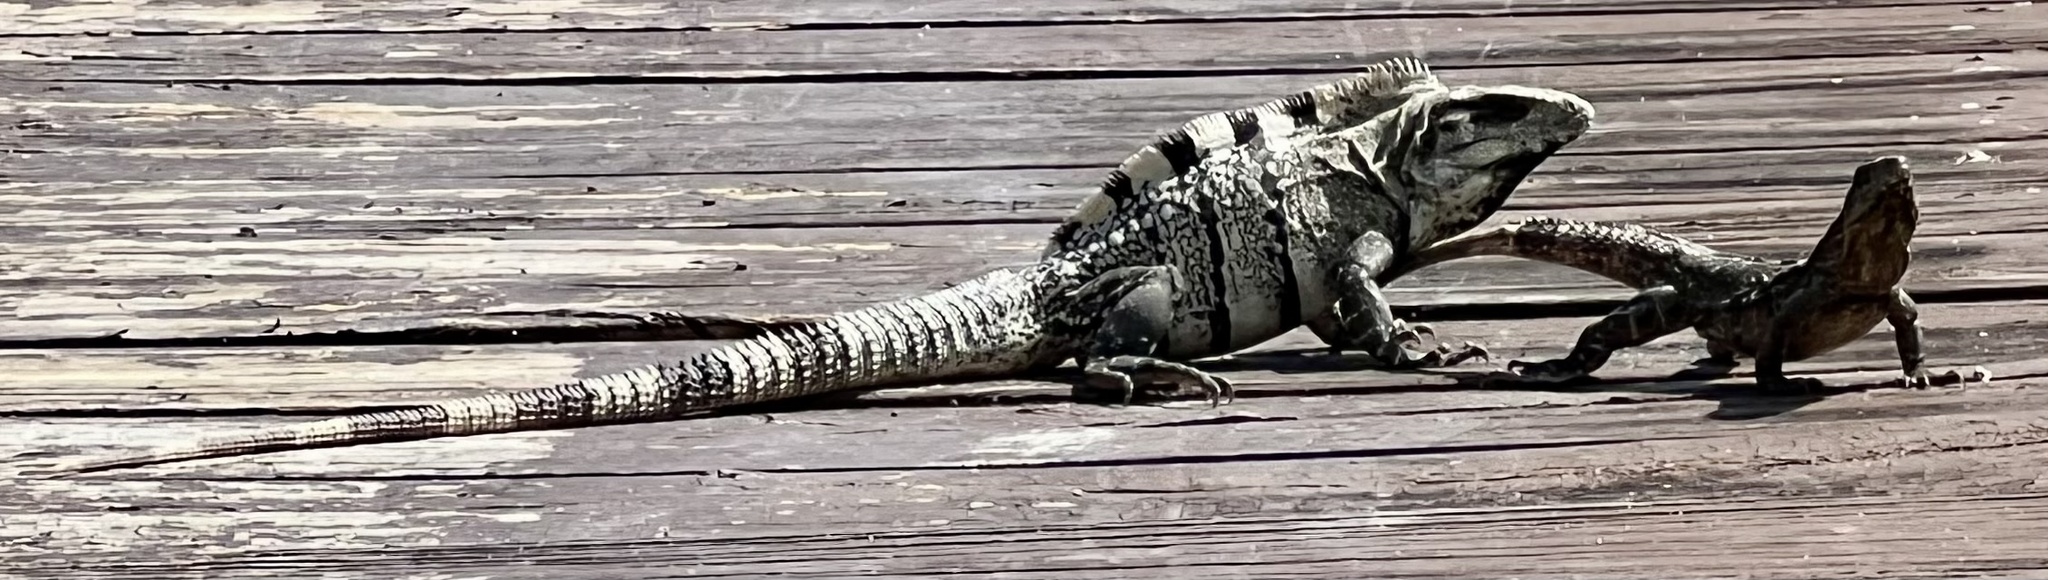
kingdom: Animalia
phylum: Chordata
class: Squamata
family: Iguanidae
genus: Ctenosaura
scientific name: Ctenosaura similis
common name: Black spiny-tailed iguana
